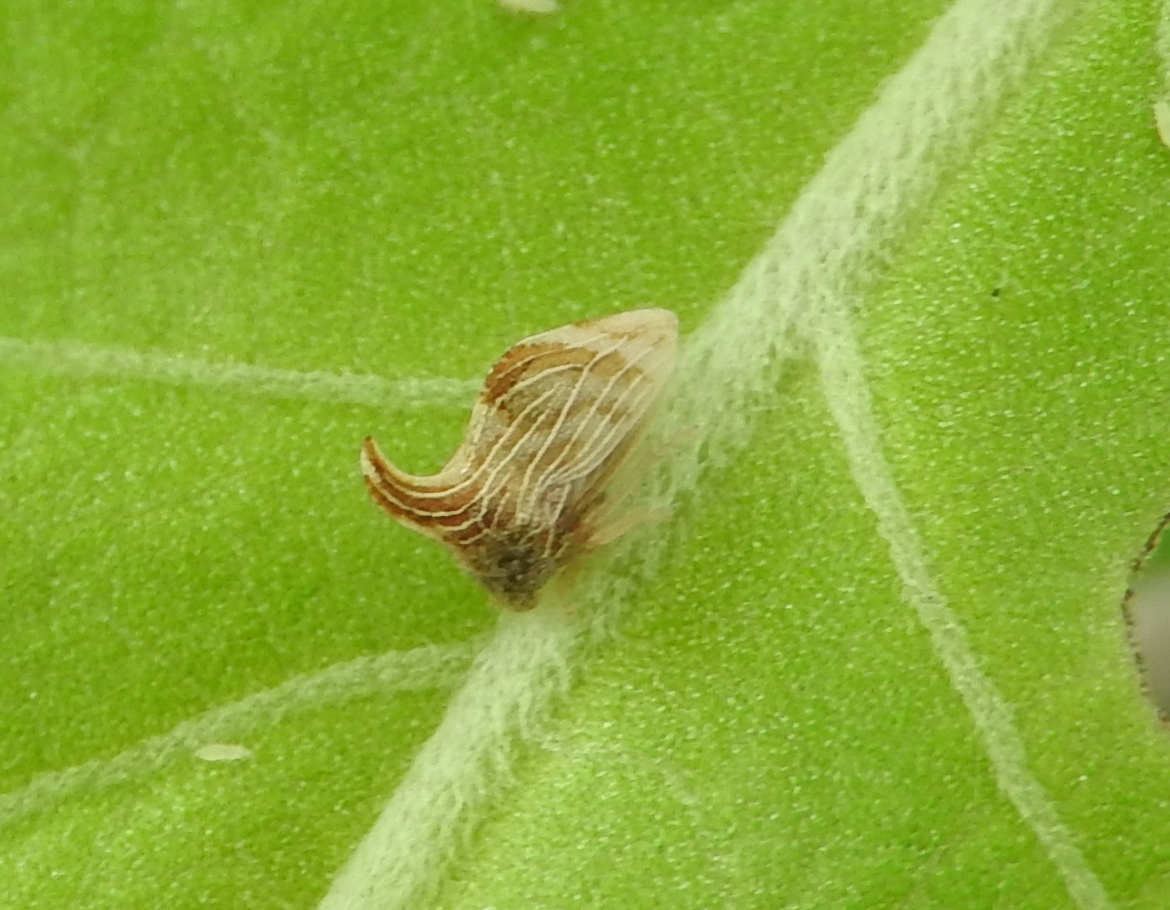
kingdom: Animalia
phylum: Arthropoda
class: Insecta
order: Hemiptera
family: Membracidae
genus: Publilia
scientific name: Publilia erecta
